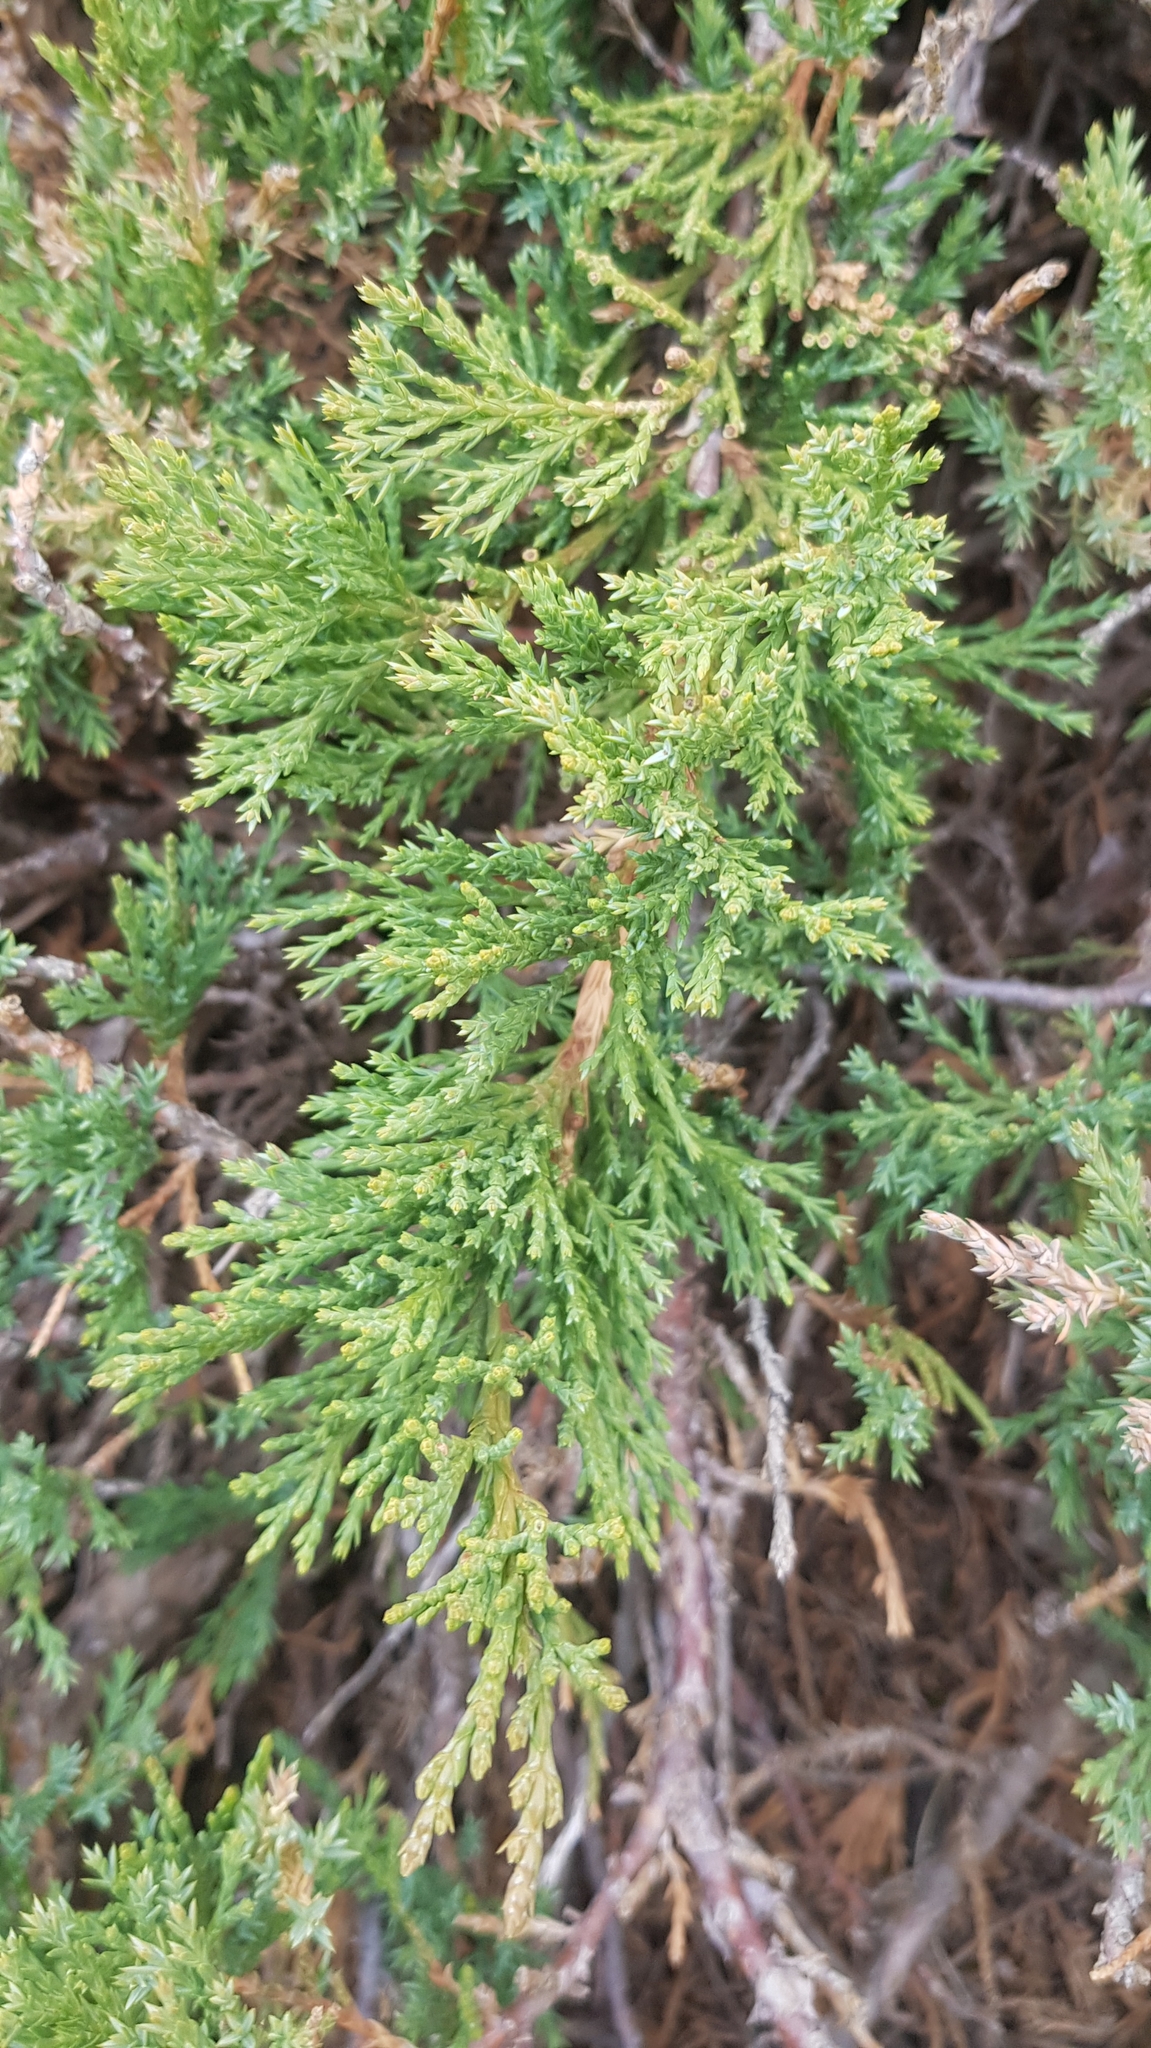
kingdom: Plantae
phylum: Tracheophyta
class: Pinopsida
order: Pinales
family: Cupressaceae
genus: Juniperus
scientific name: Juniperus sabina
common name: Savin
